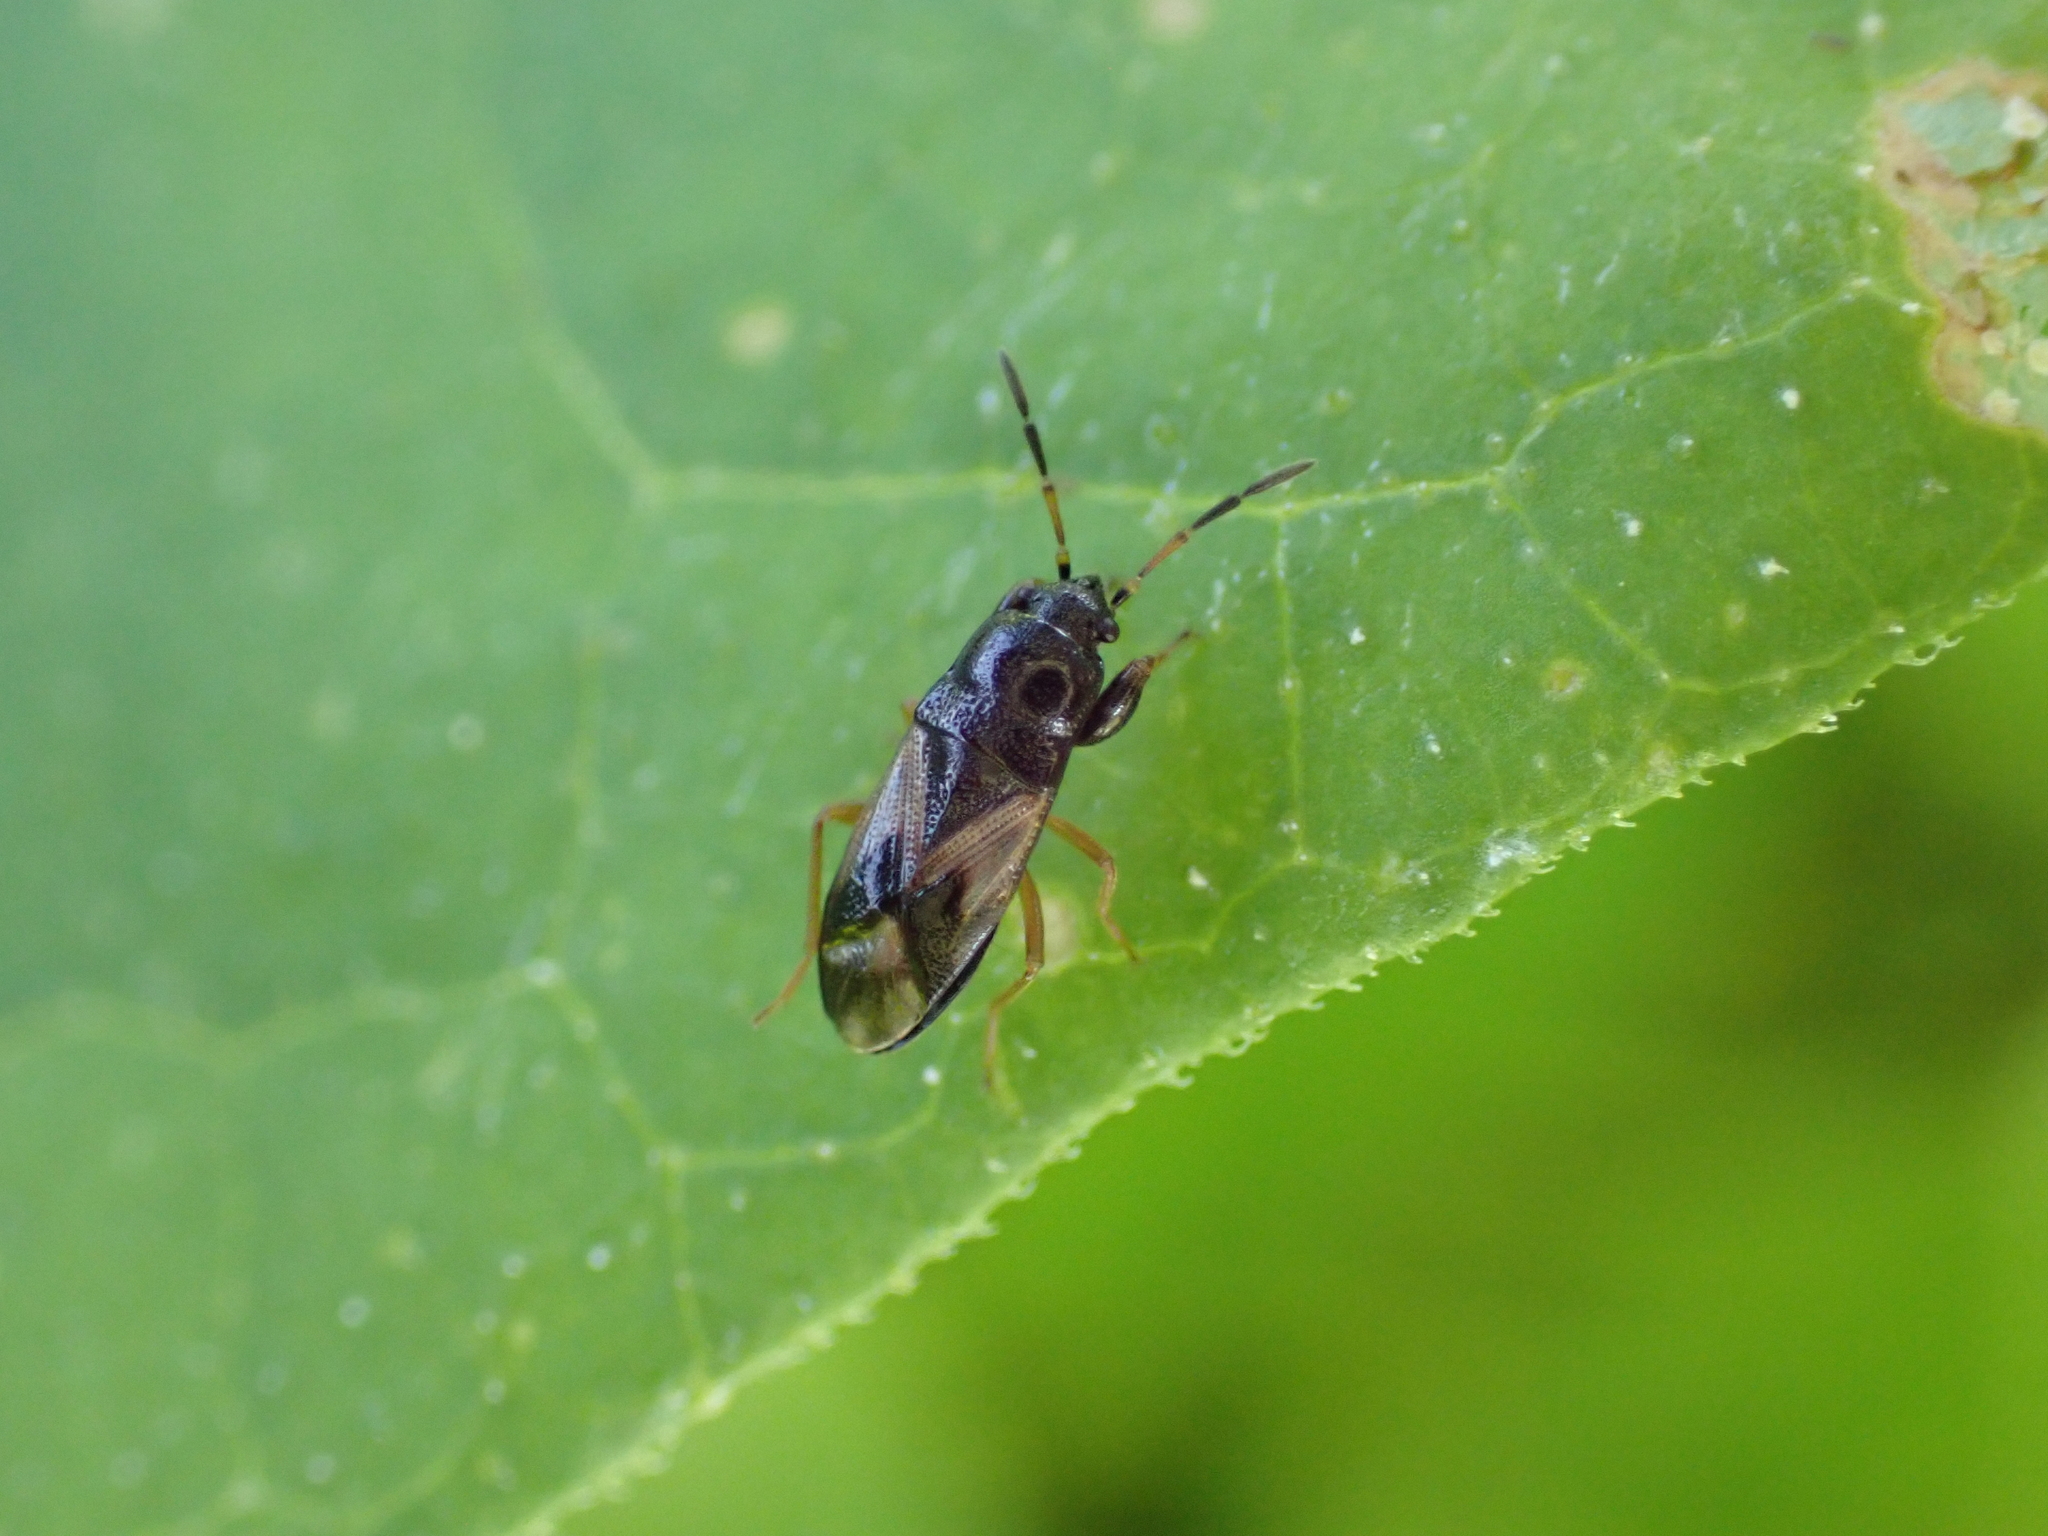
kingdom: Animalia
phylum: Arthropoda
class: Insecta
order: Hemiptera
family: Rhyparochromidae
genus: Megalonotus
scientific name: Megalonotus praetextatus
